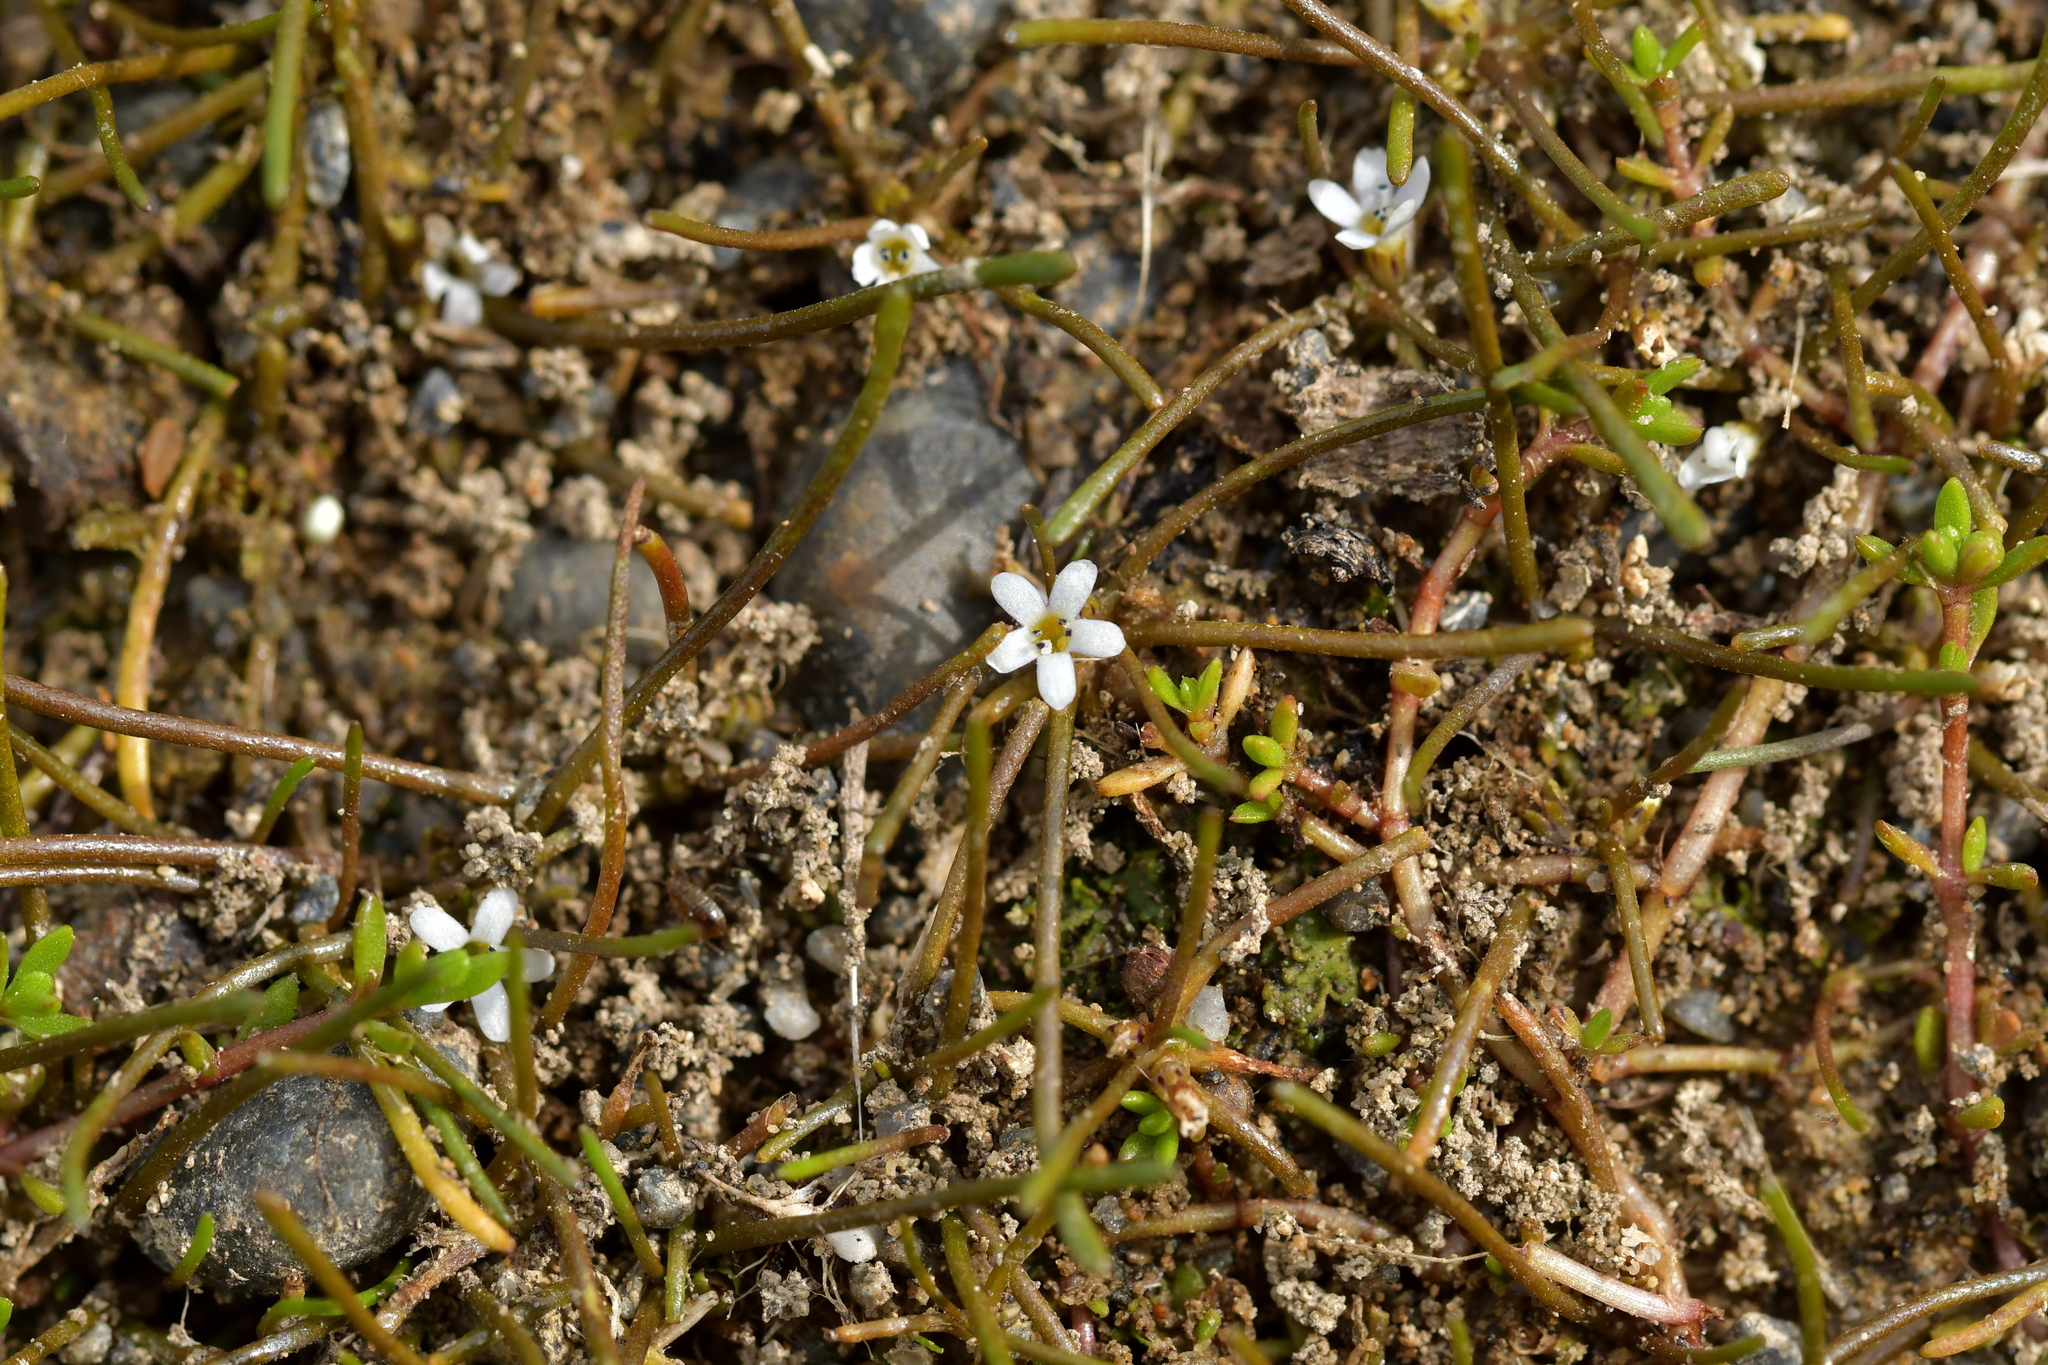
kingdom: Plantae
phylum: Tracheophyta
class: Magnoliopsida
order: Lamiales
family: Scrophulariaceae
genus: Limosella
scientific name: Limosella australis
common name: Welsh mudwort
